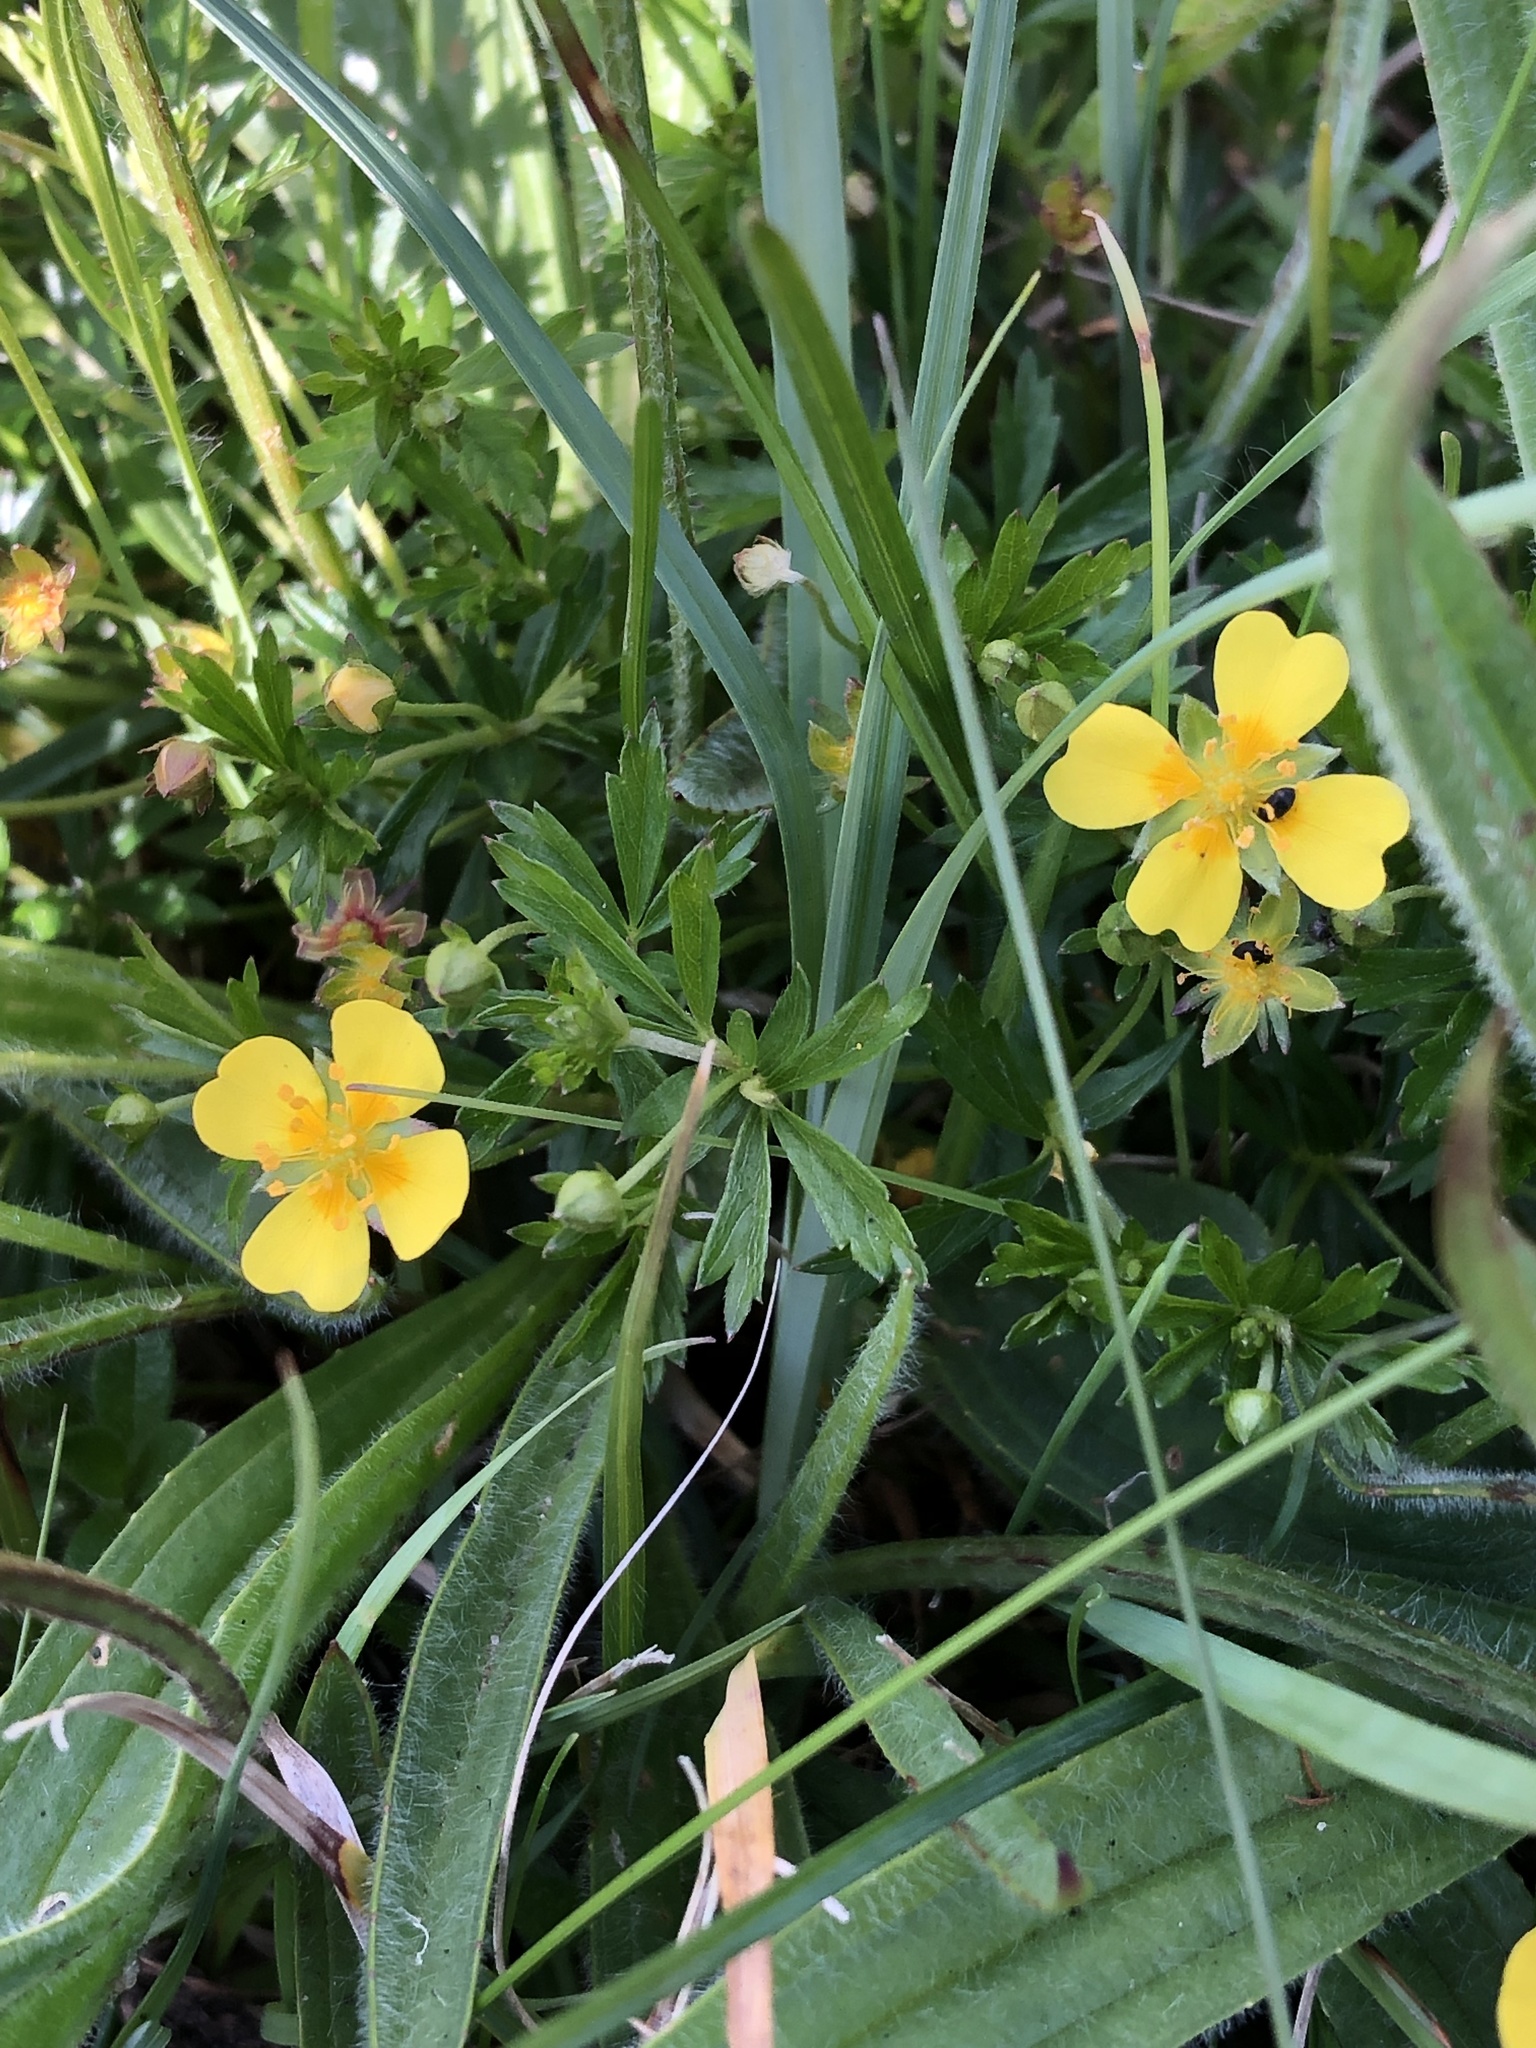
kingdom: Plantae
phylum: Tracheophyta
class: Magnoliopsida
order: Rosales
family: Rosaceae
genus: Potentilla
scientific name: Potentilla erecta
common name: Tormentil
